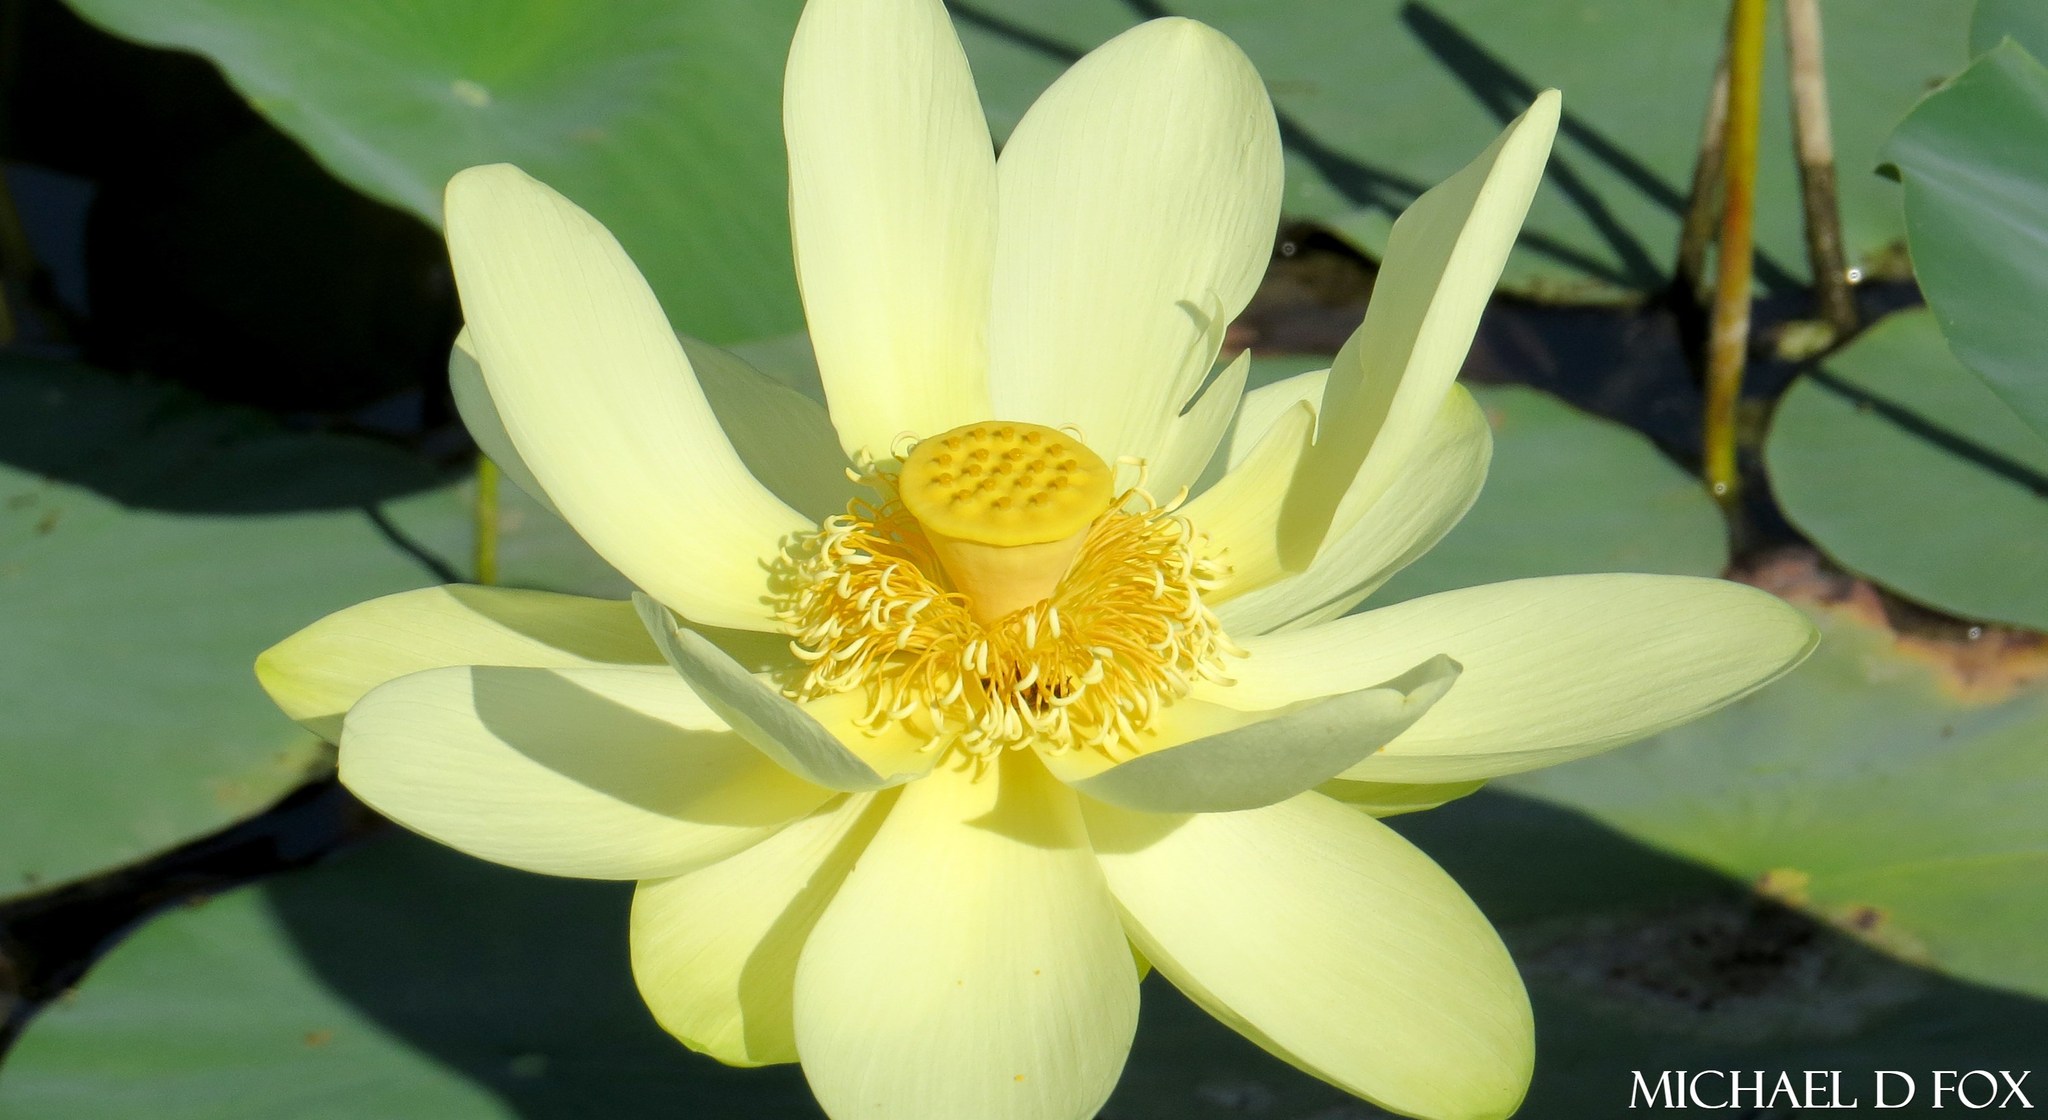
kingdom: Plantae
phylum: Tracheophyta
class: Magnoliopsida
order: Proteales
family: Nelumbonaceae
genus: Nelumbo
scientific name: Nelumbo lutea
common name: American lotus
